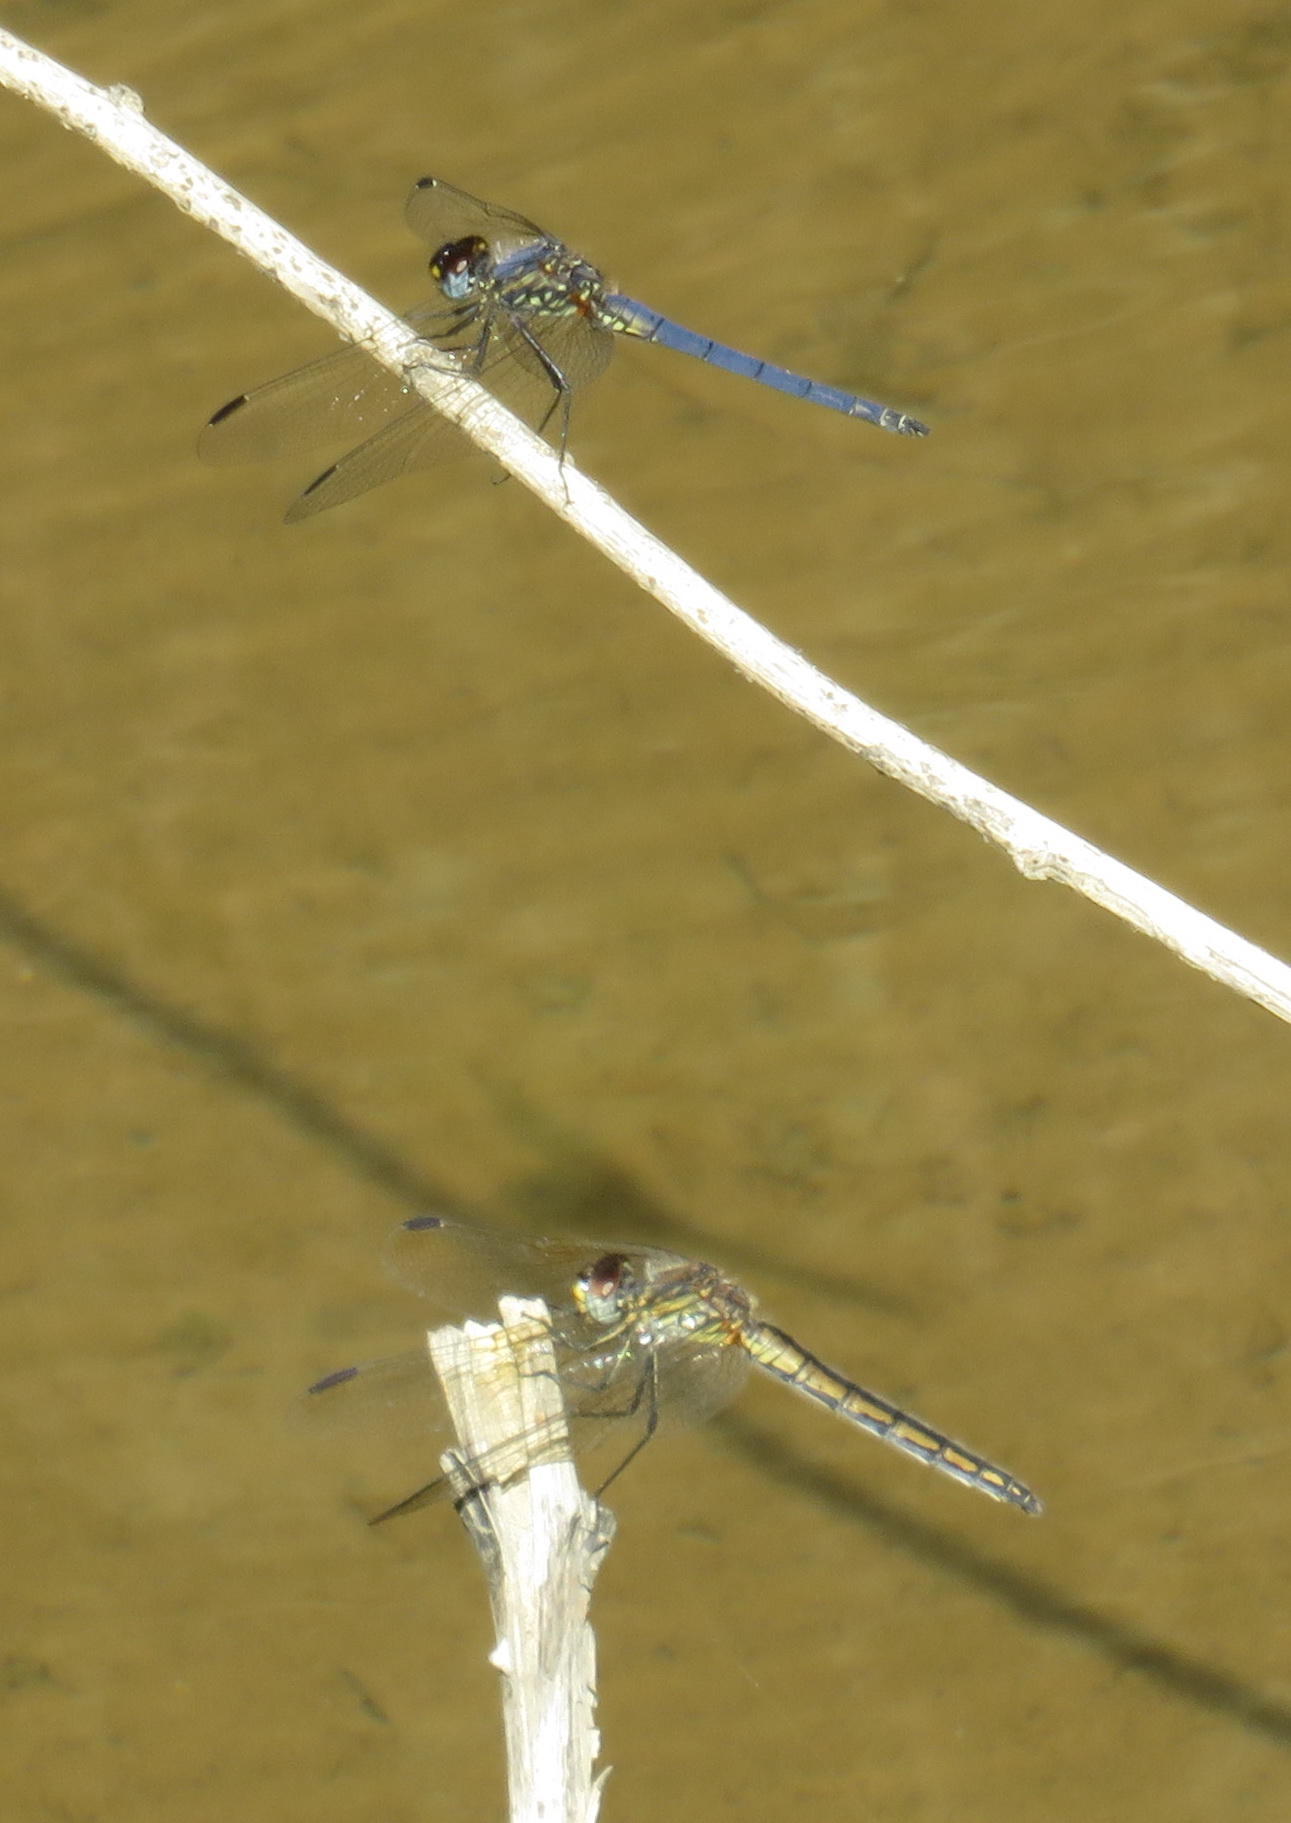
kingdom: Animalia
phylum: Arthropoda
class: Insecta
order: Odonata
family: Libellulidae
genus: Trithemis
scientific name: Trithemis dorsalis
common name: Highland dropwing
